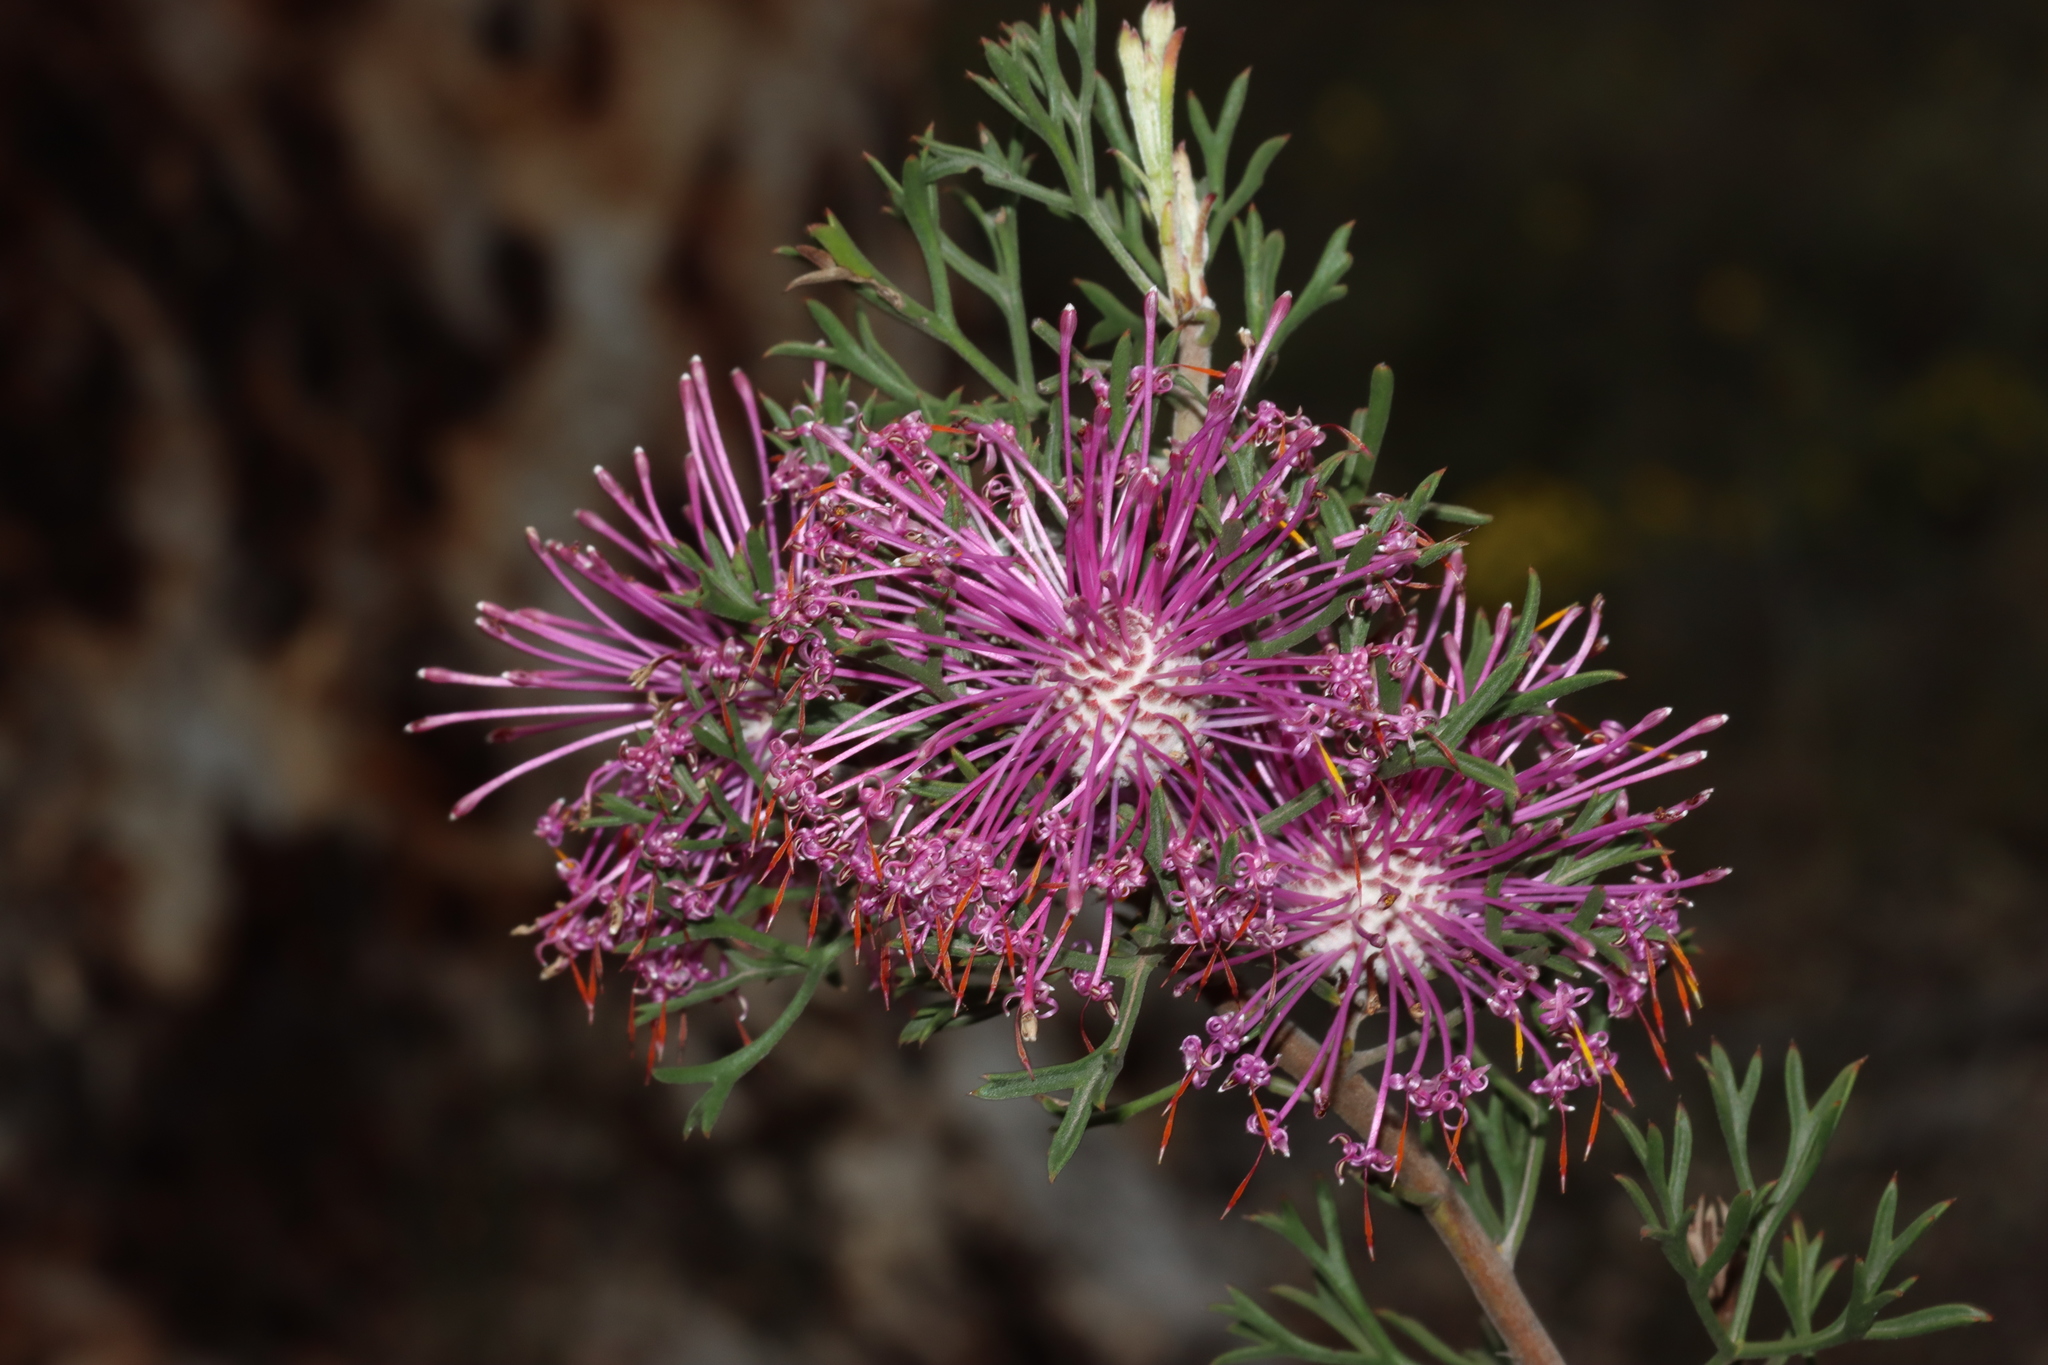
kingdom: Plantae
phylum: Tracheophyta
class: Magnoliopsida
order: Proteales
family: Proteaceae
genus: Isopogon
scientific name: Isopogon dubius
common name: Pincushion-coneflower
